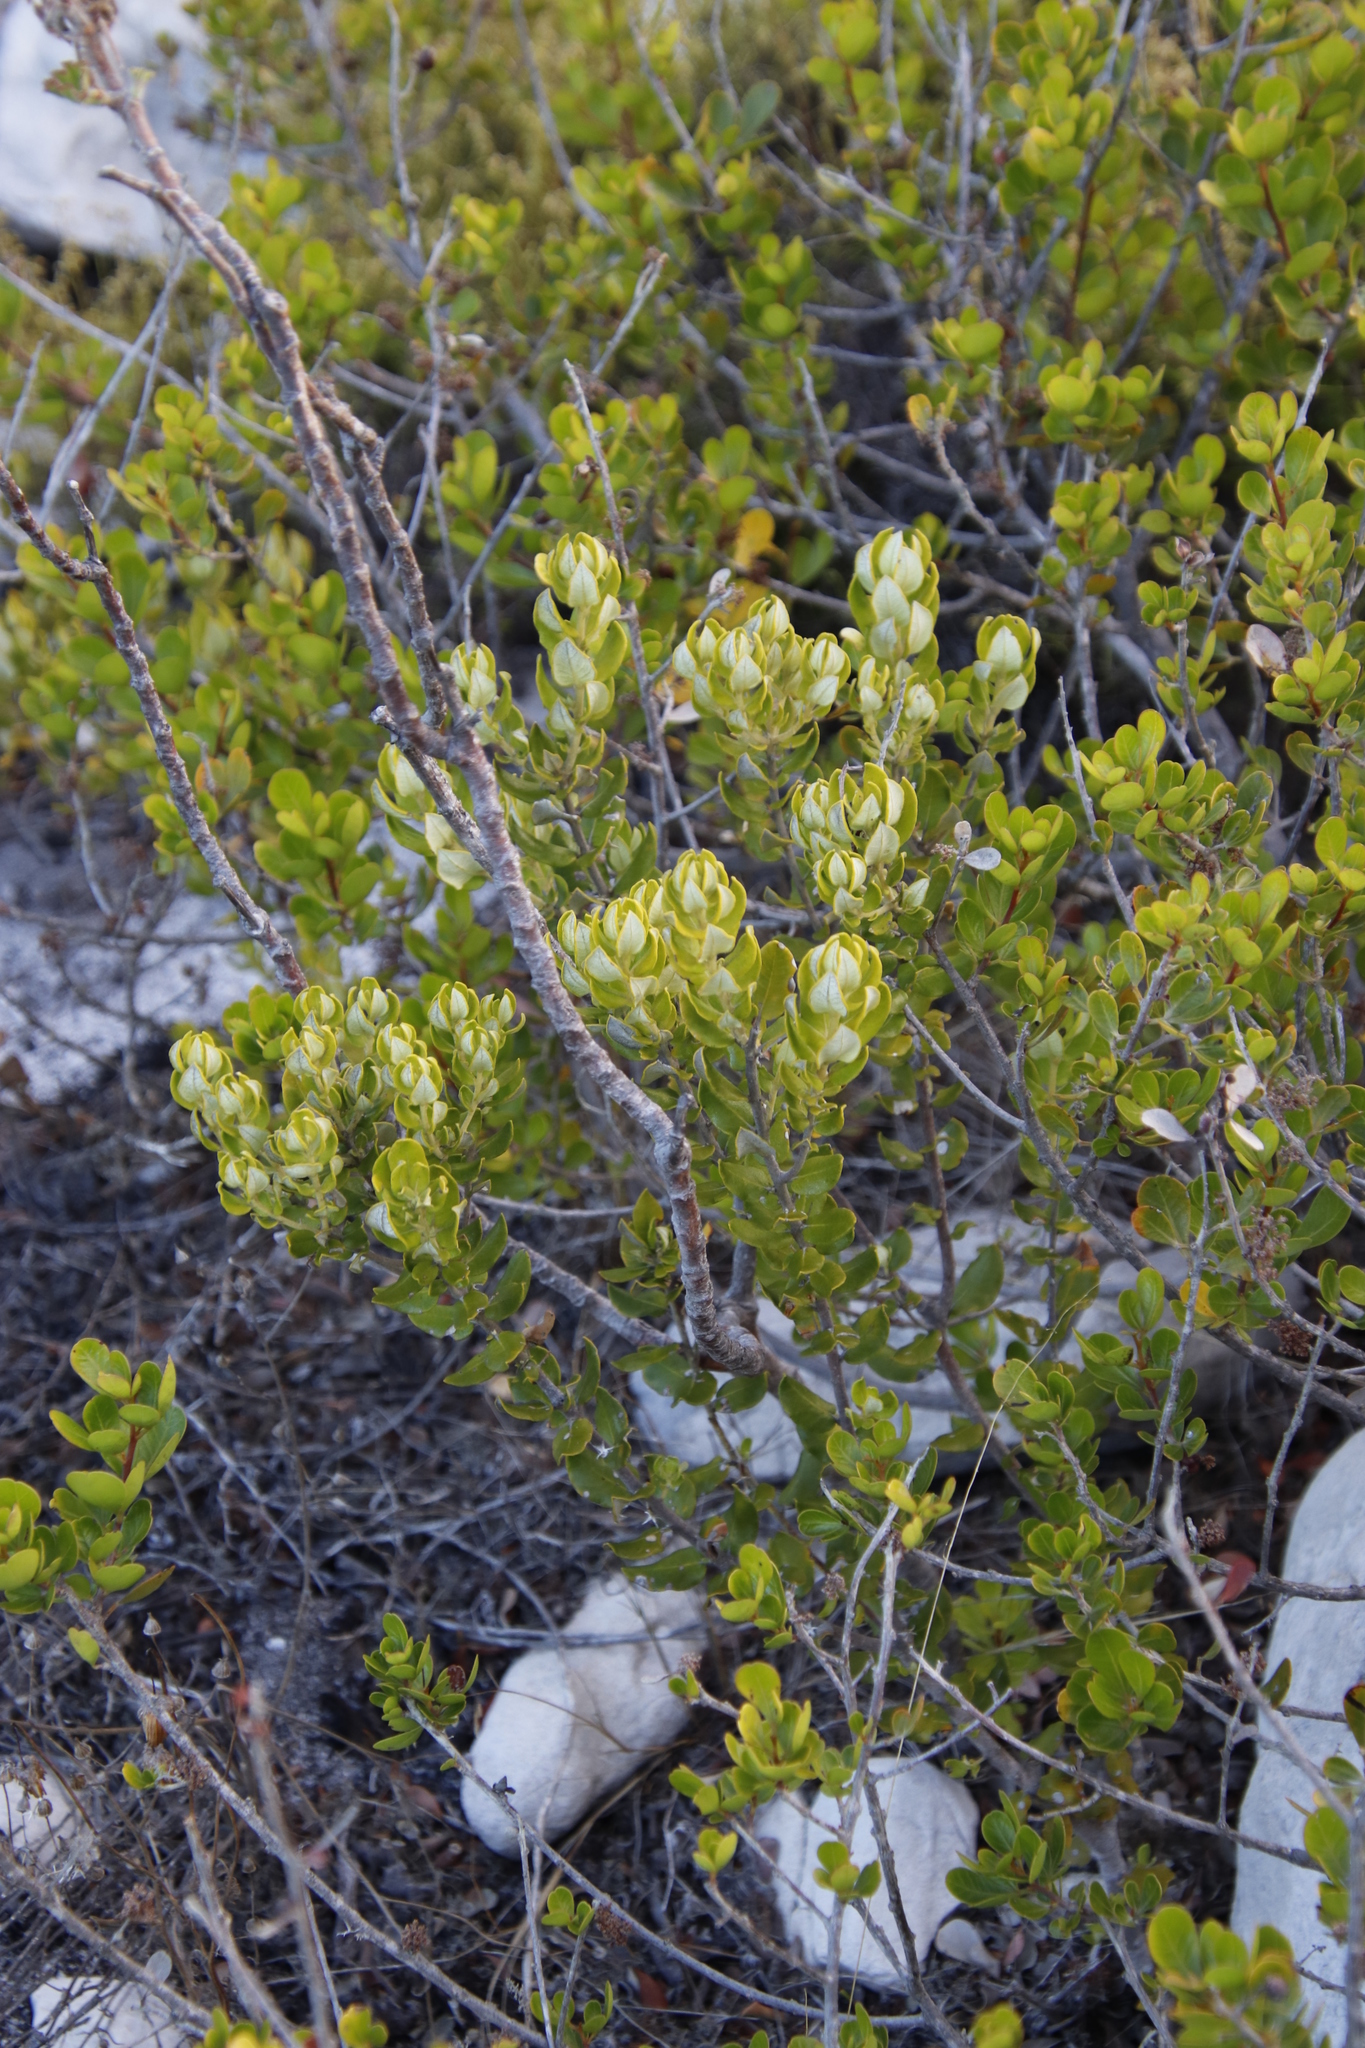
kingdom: Plantae
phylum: Tracheophyta
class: Magnoliopsida
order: Rosales
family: Rhamnaceae
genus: Phylica
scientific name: Phylica buxifolia
